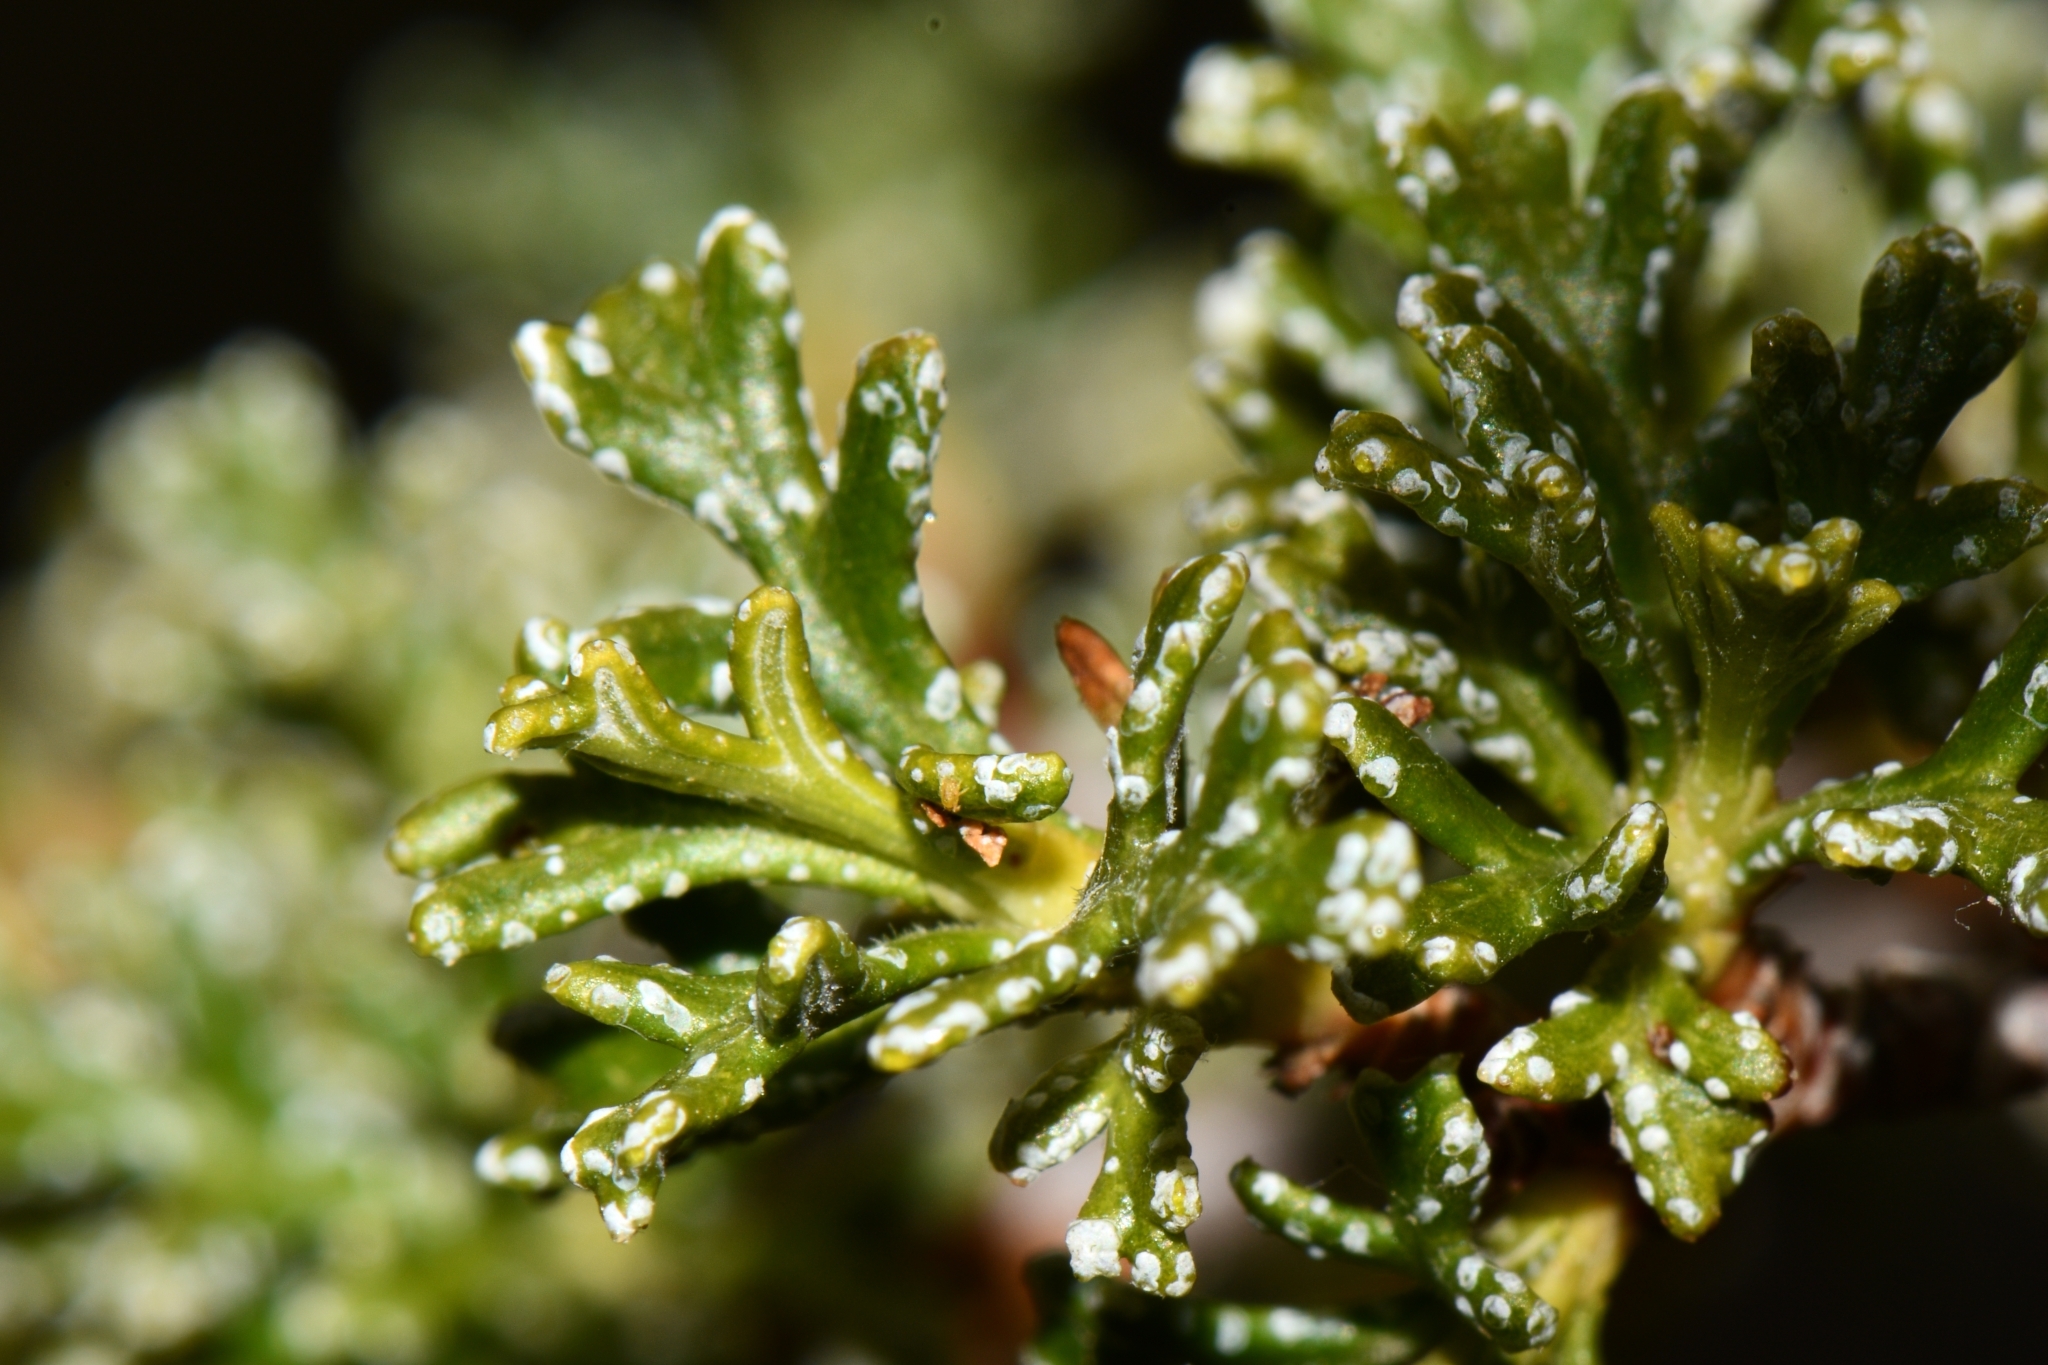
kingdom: Plantae
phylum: Tracheophyta
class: Magnoliopsida
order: Rosales
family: Rosaceae
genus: Purshia
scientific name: Purshia stansburiana
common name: Stansbury's cliffrose
